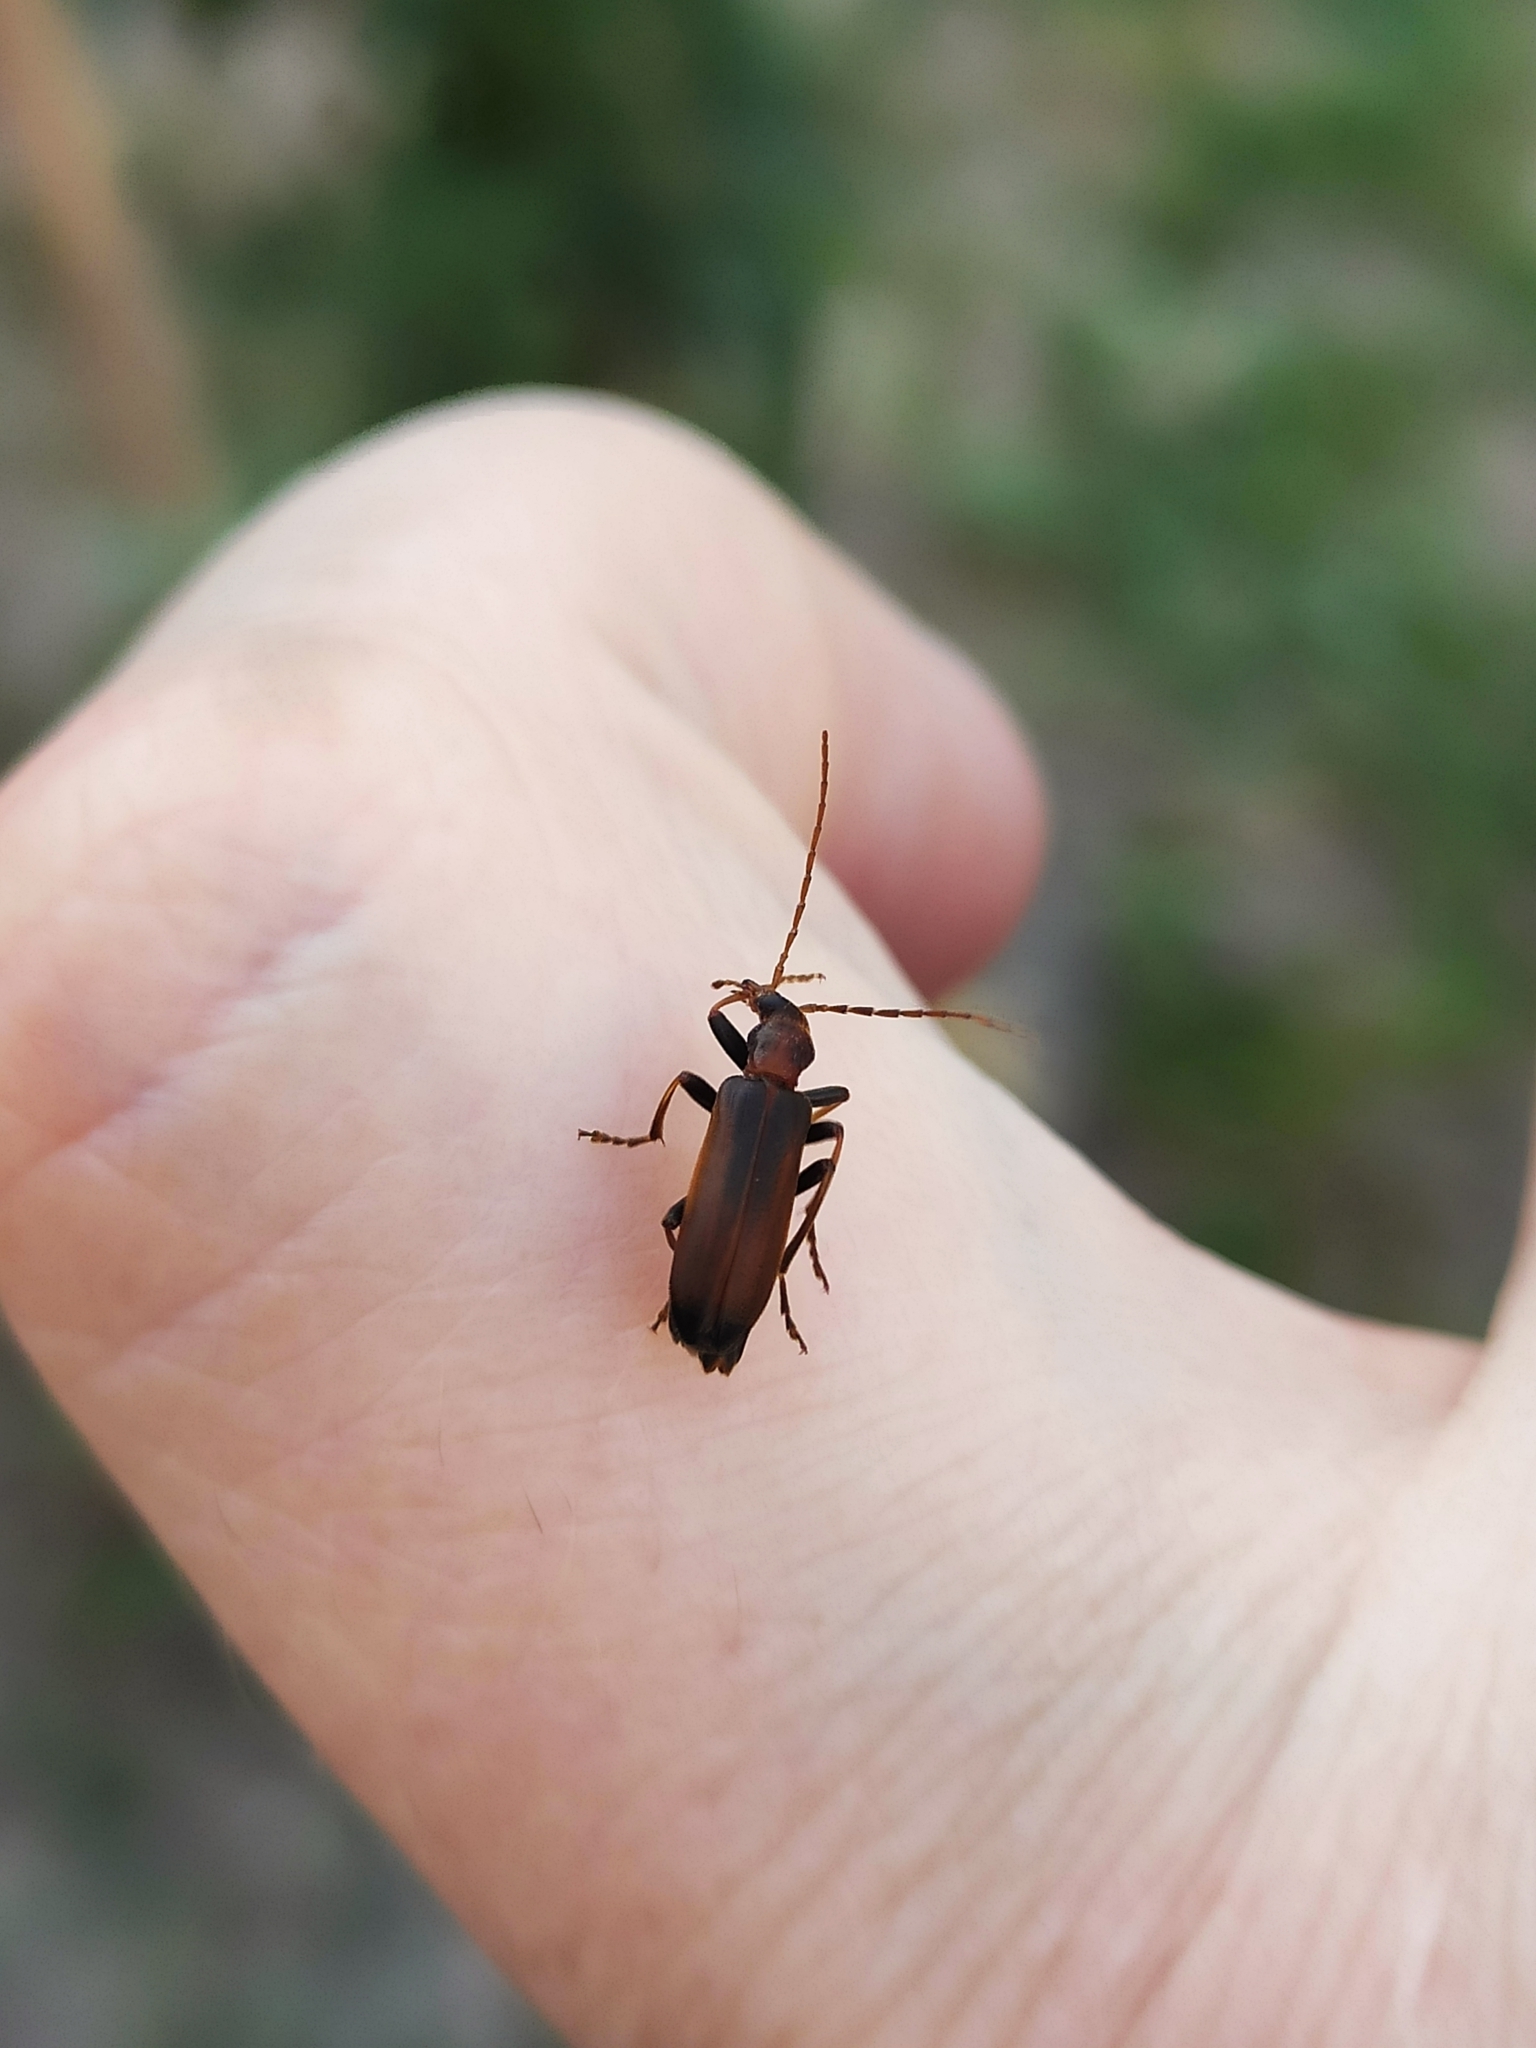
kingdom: Animalia
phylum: Arthropoda
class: Insecta
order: Coleoptera
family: Oedemeridae
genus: Nacerdes
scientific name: Nacerdes melanura
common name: Wharf borer
